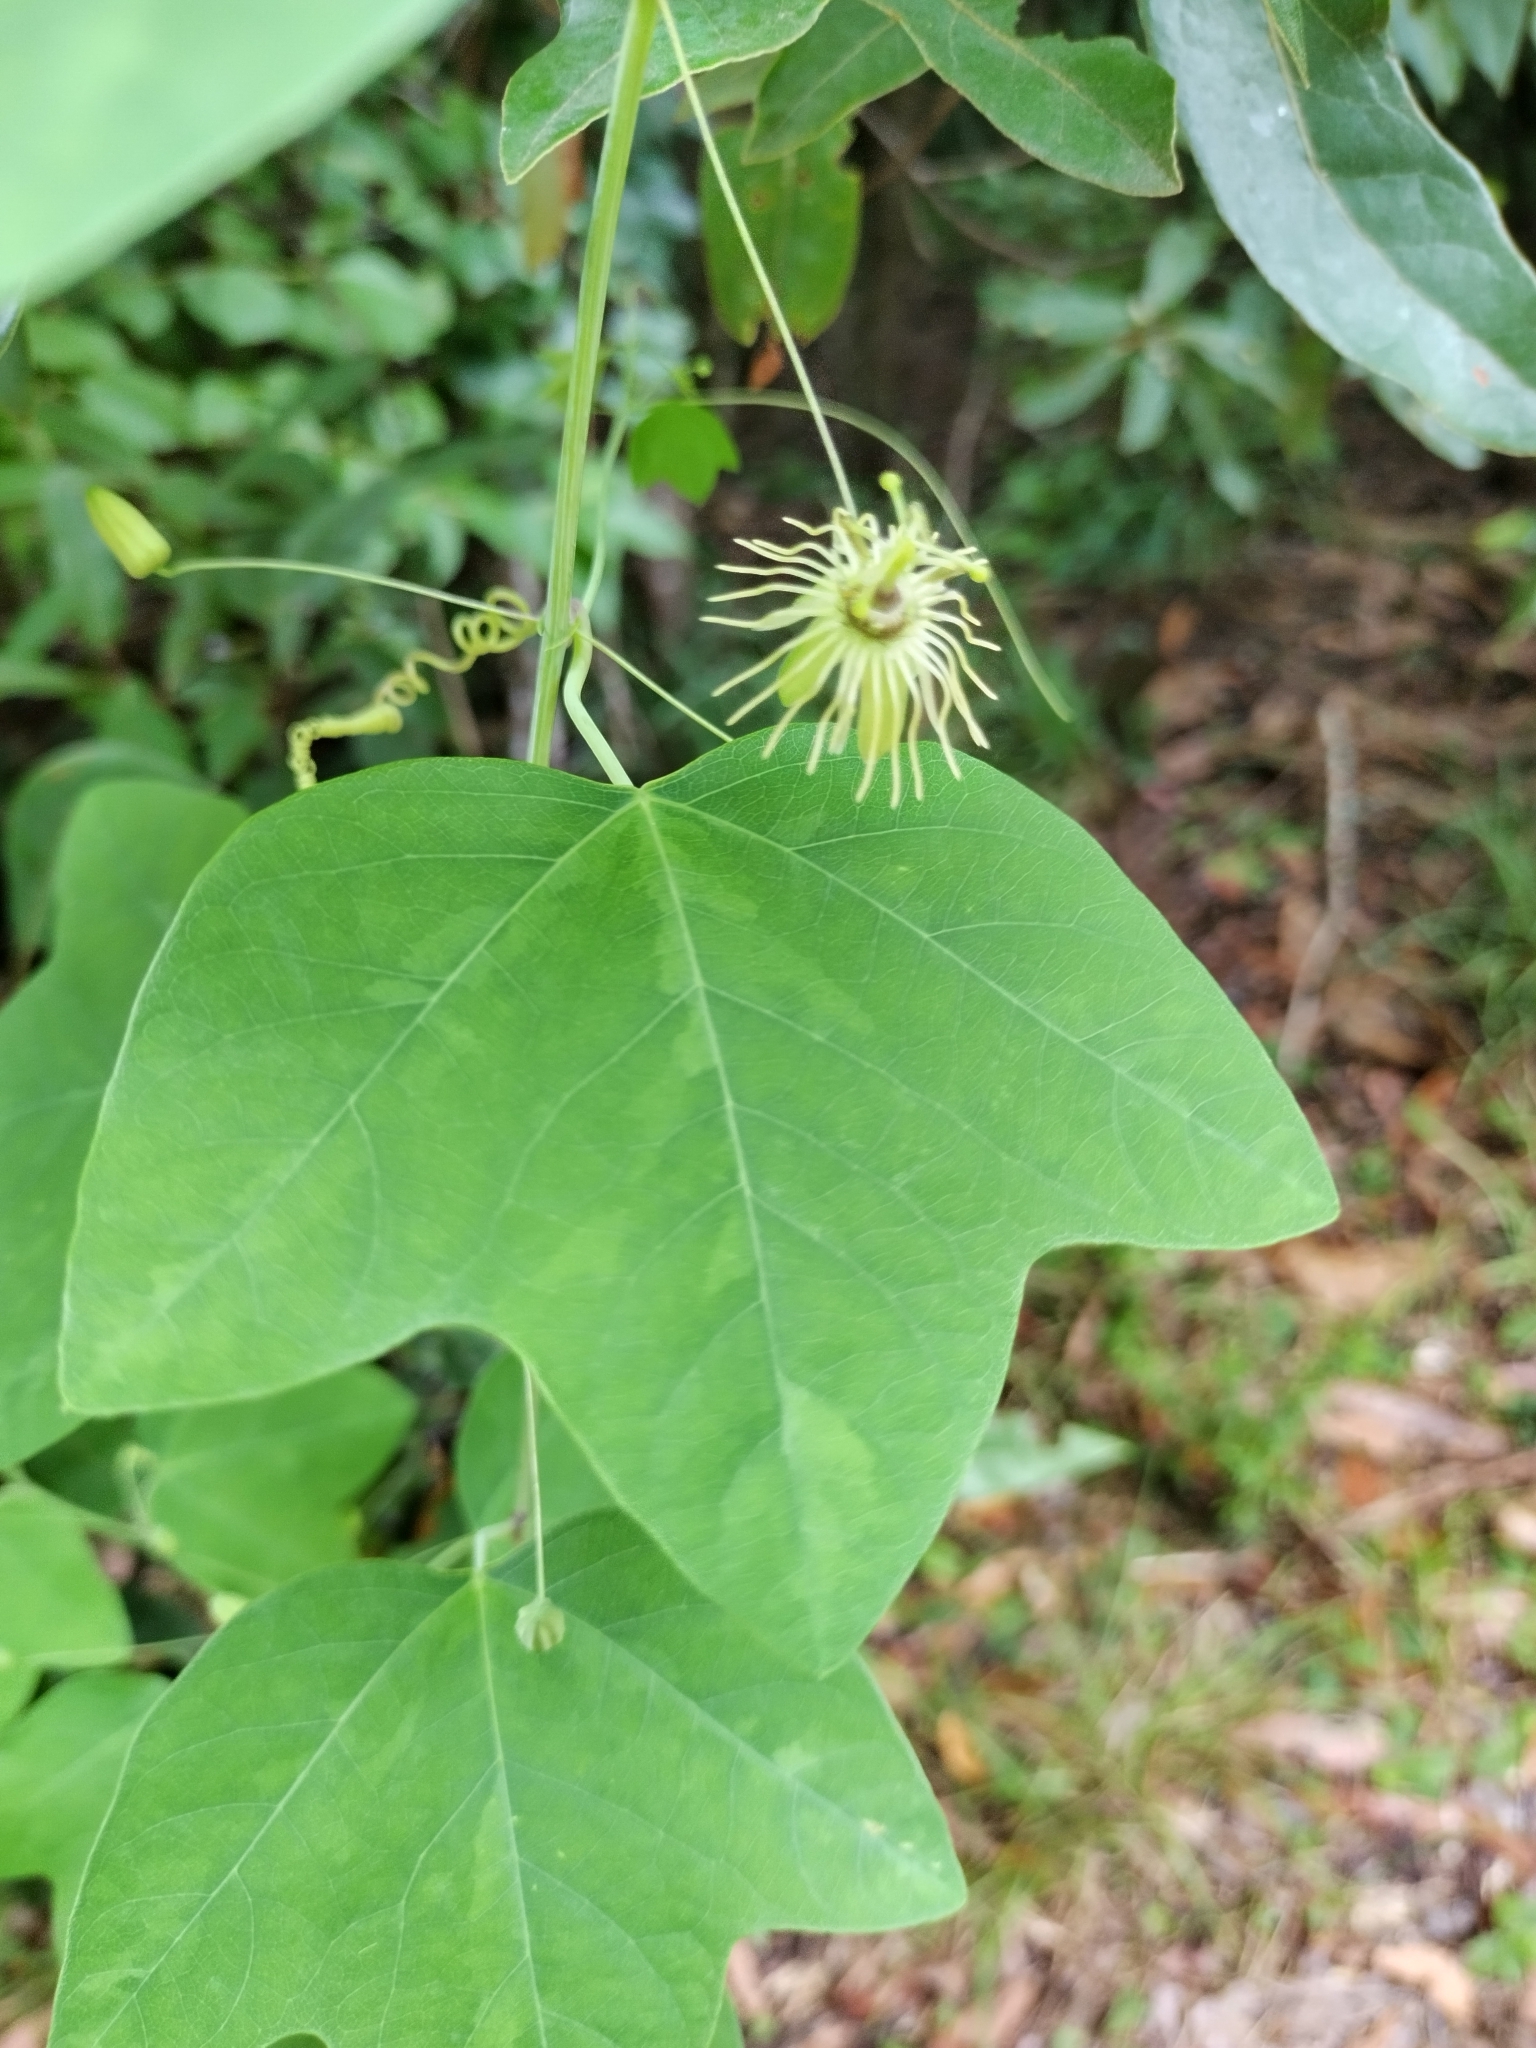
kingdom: Plantae
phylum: Tracheophyta
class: Magnoliopsida
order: Malpighiales
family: Passifloraceae
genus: Passiflora
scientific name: Passiflora lutea
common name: Yellow passionflower
